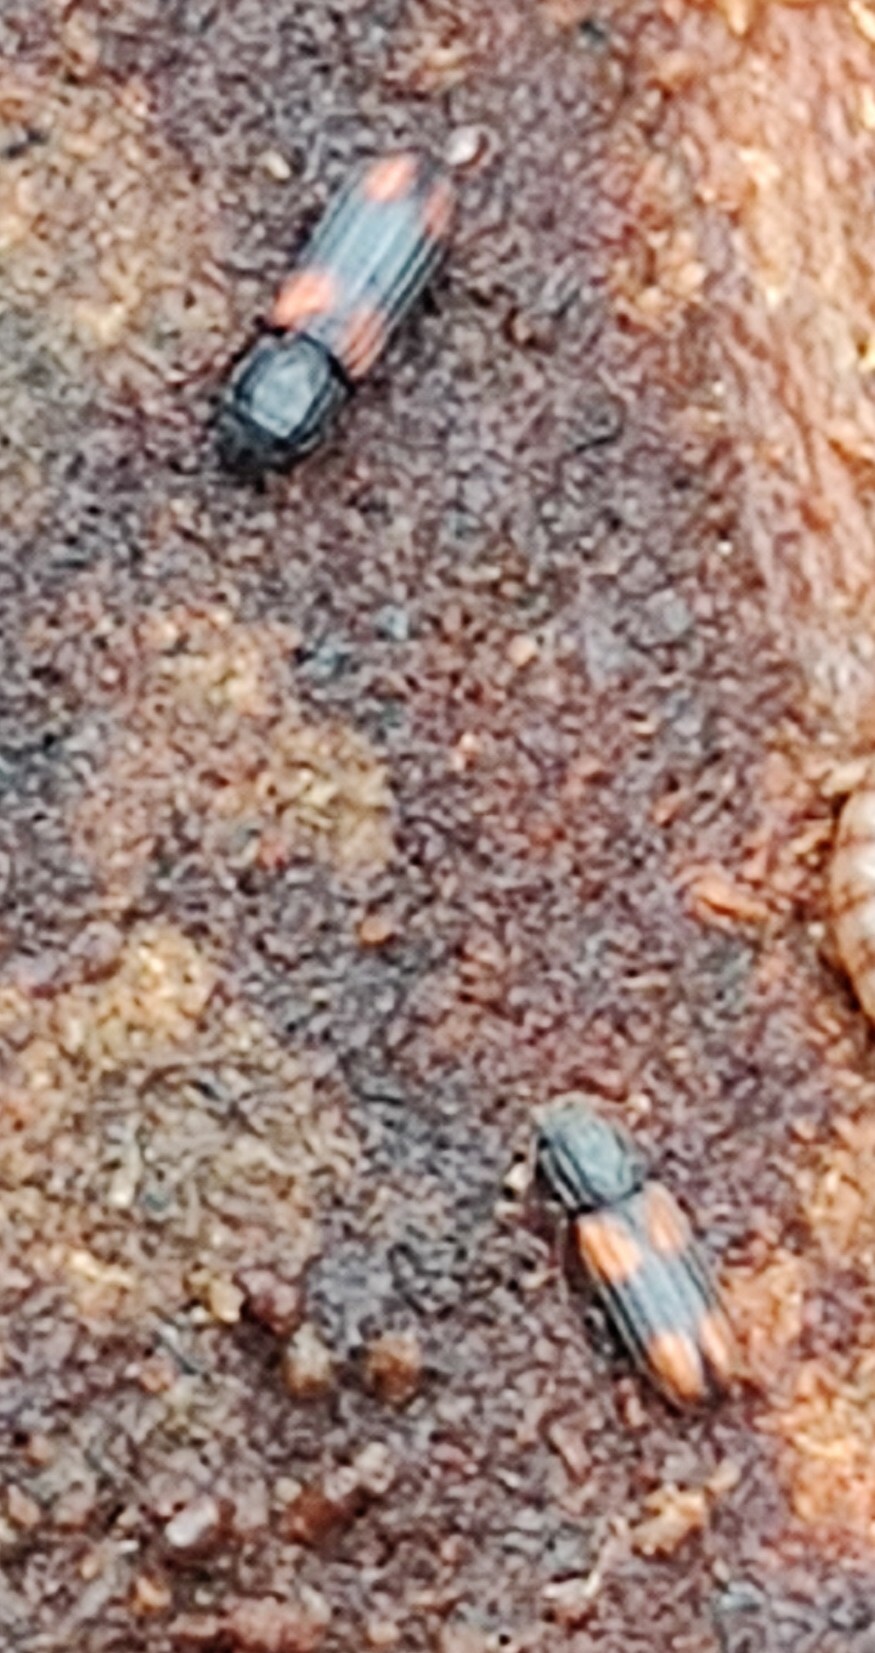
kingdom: Animalia
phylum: Arthropoda
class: Insecta
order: Coleoptera
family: Zopheridae
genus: Bitoma
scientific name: Bitoma crenata
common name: Bark beetle
